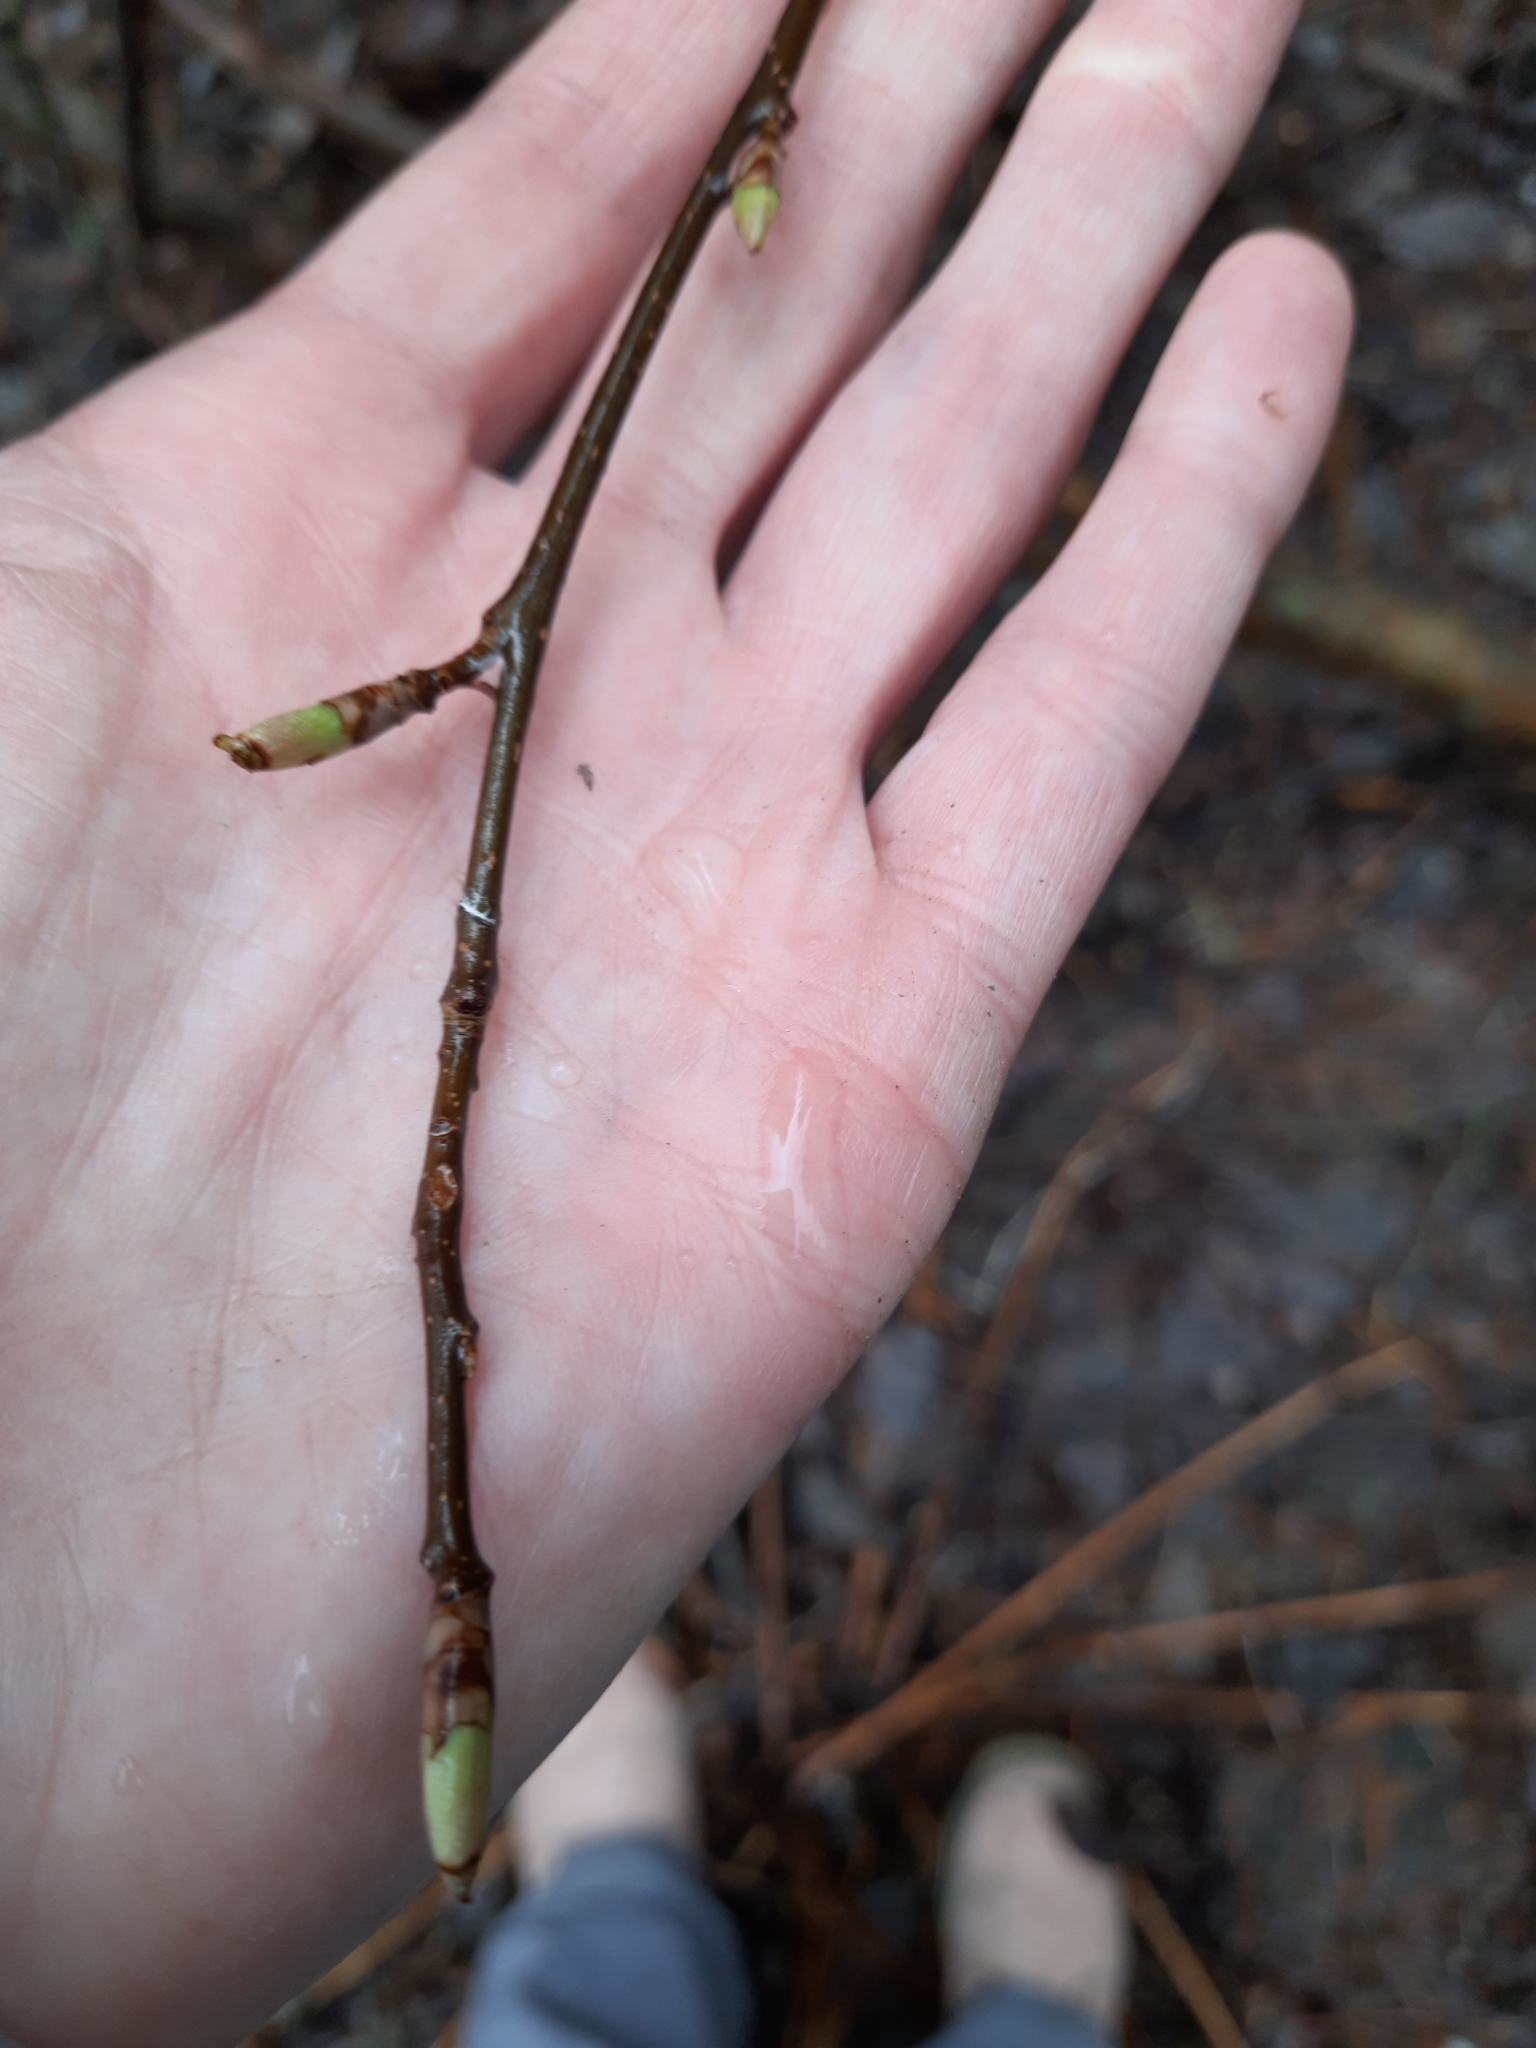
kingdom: Plantae
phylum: Tracheophyta
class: Magnoliopsida
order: Rosales
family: Rosaceae
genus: Prunus
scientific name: Prunus padus
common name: Bird cherry
